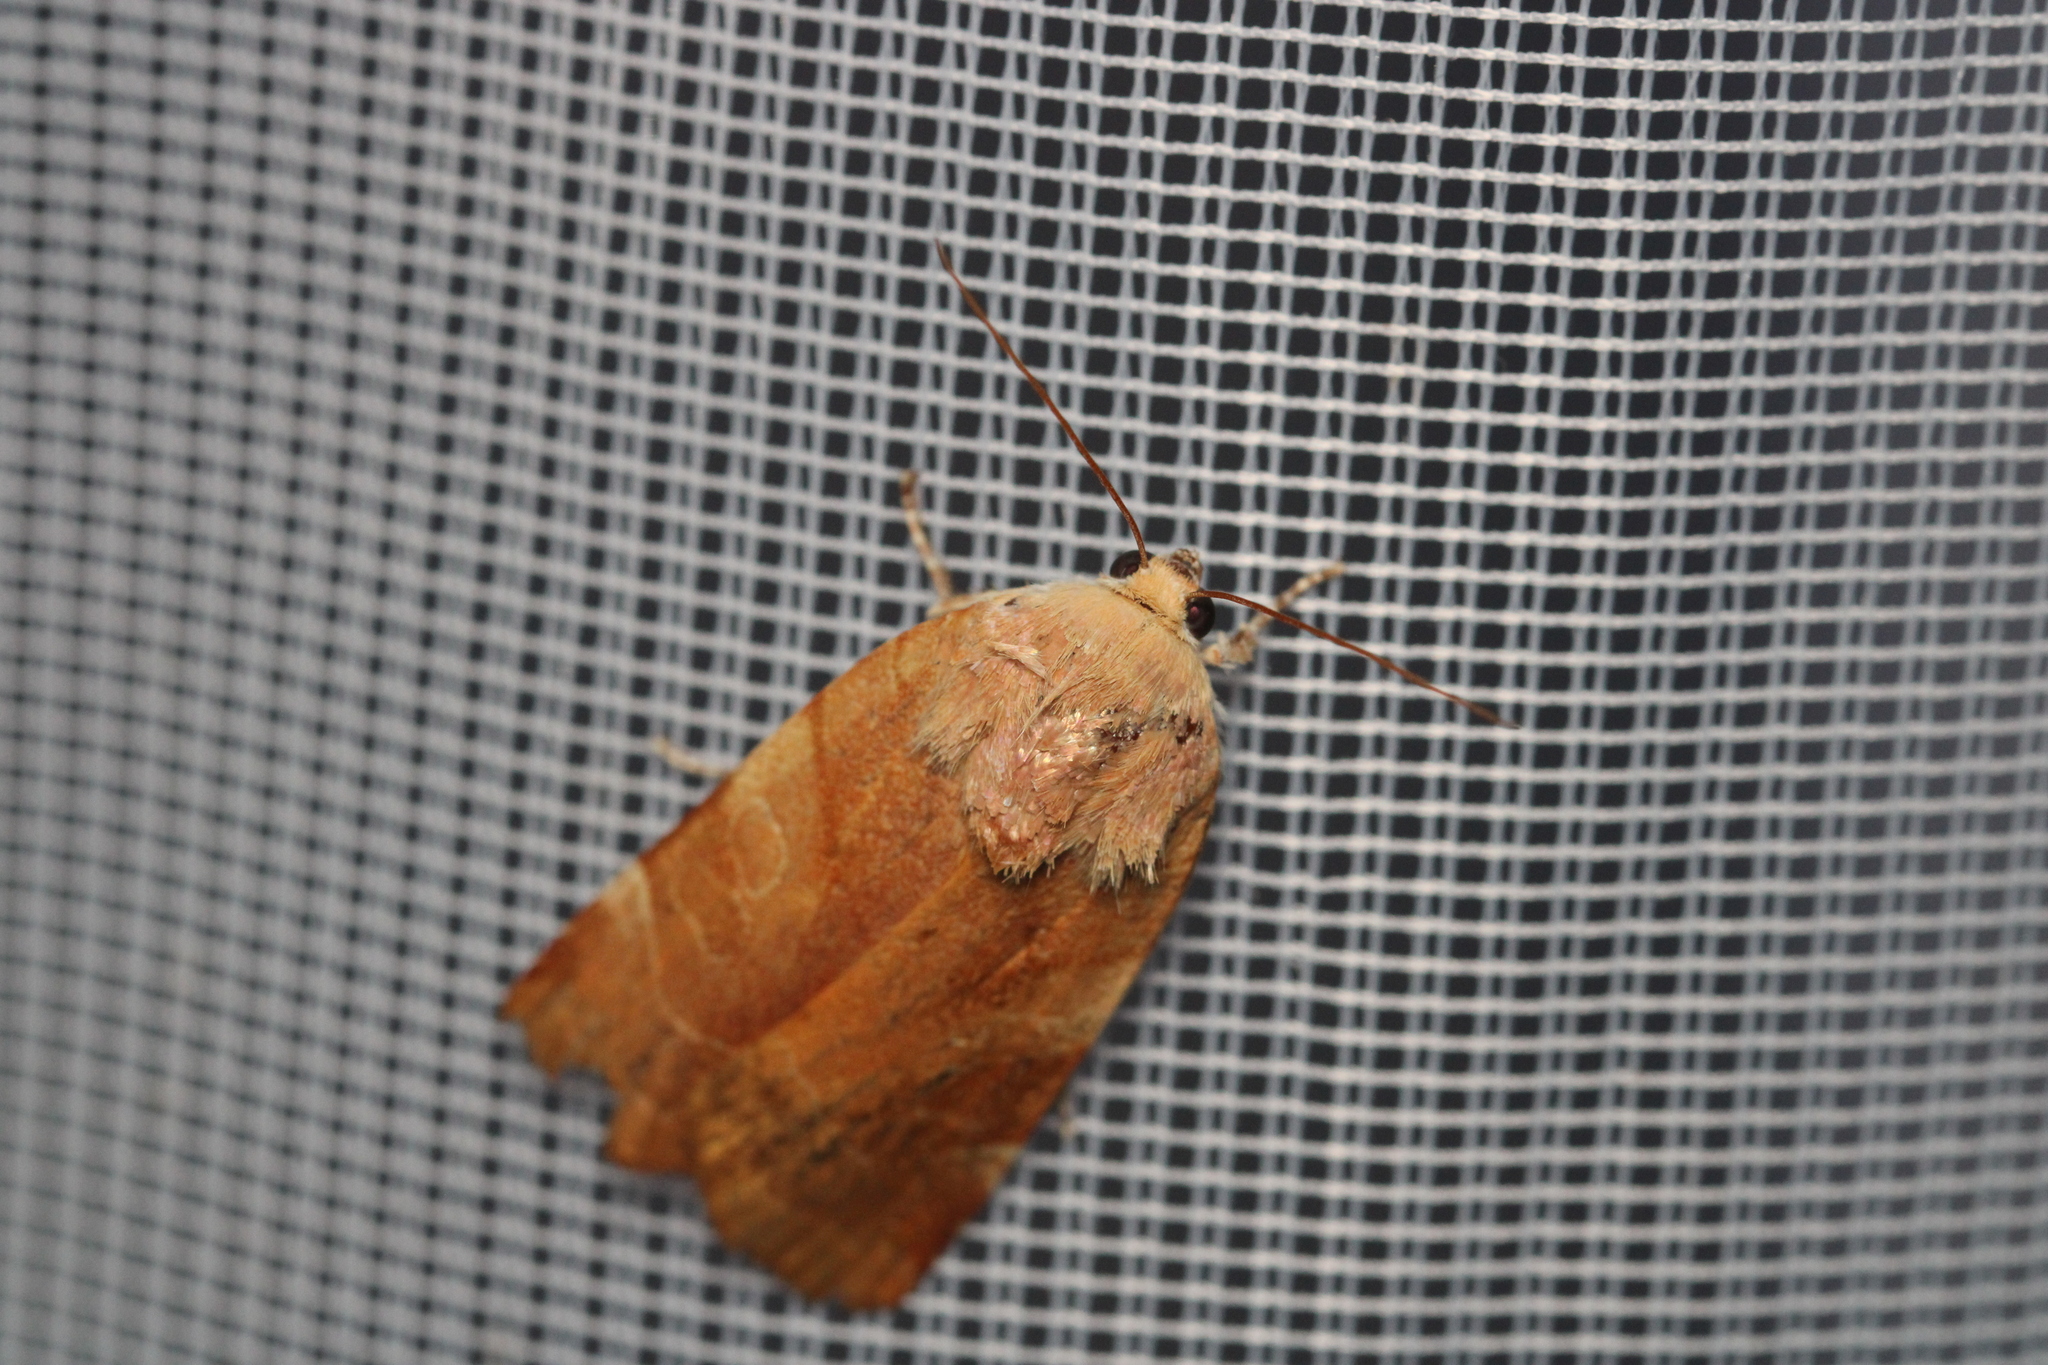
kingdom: Animalia
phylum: Arthropoda
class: Insecta
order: Lepidoptera
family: Noctuidae
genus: Noctua
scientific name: Noctua fimbriata
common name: Broad-bordered yellow underwing
